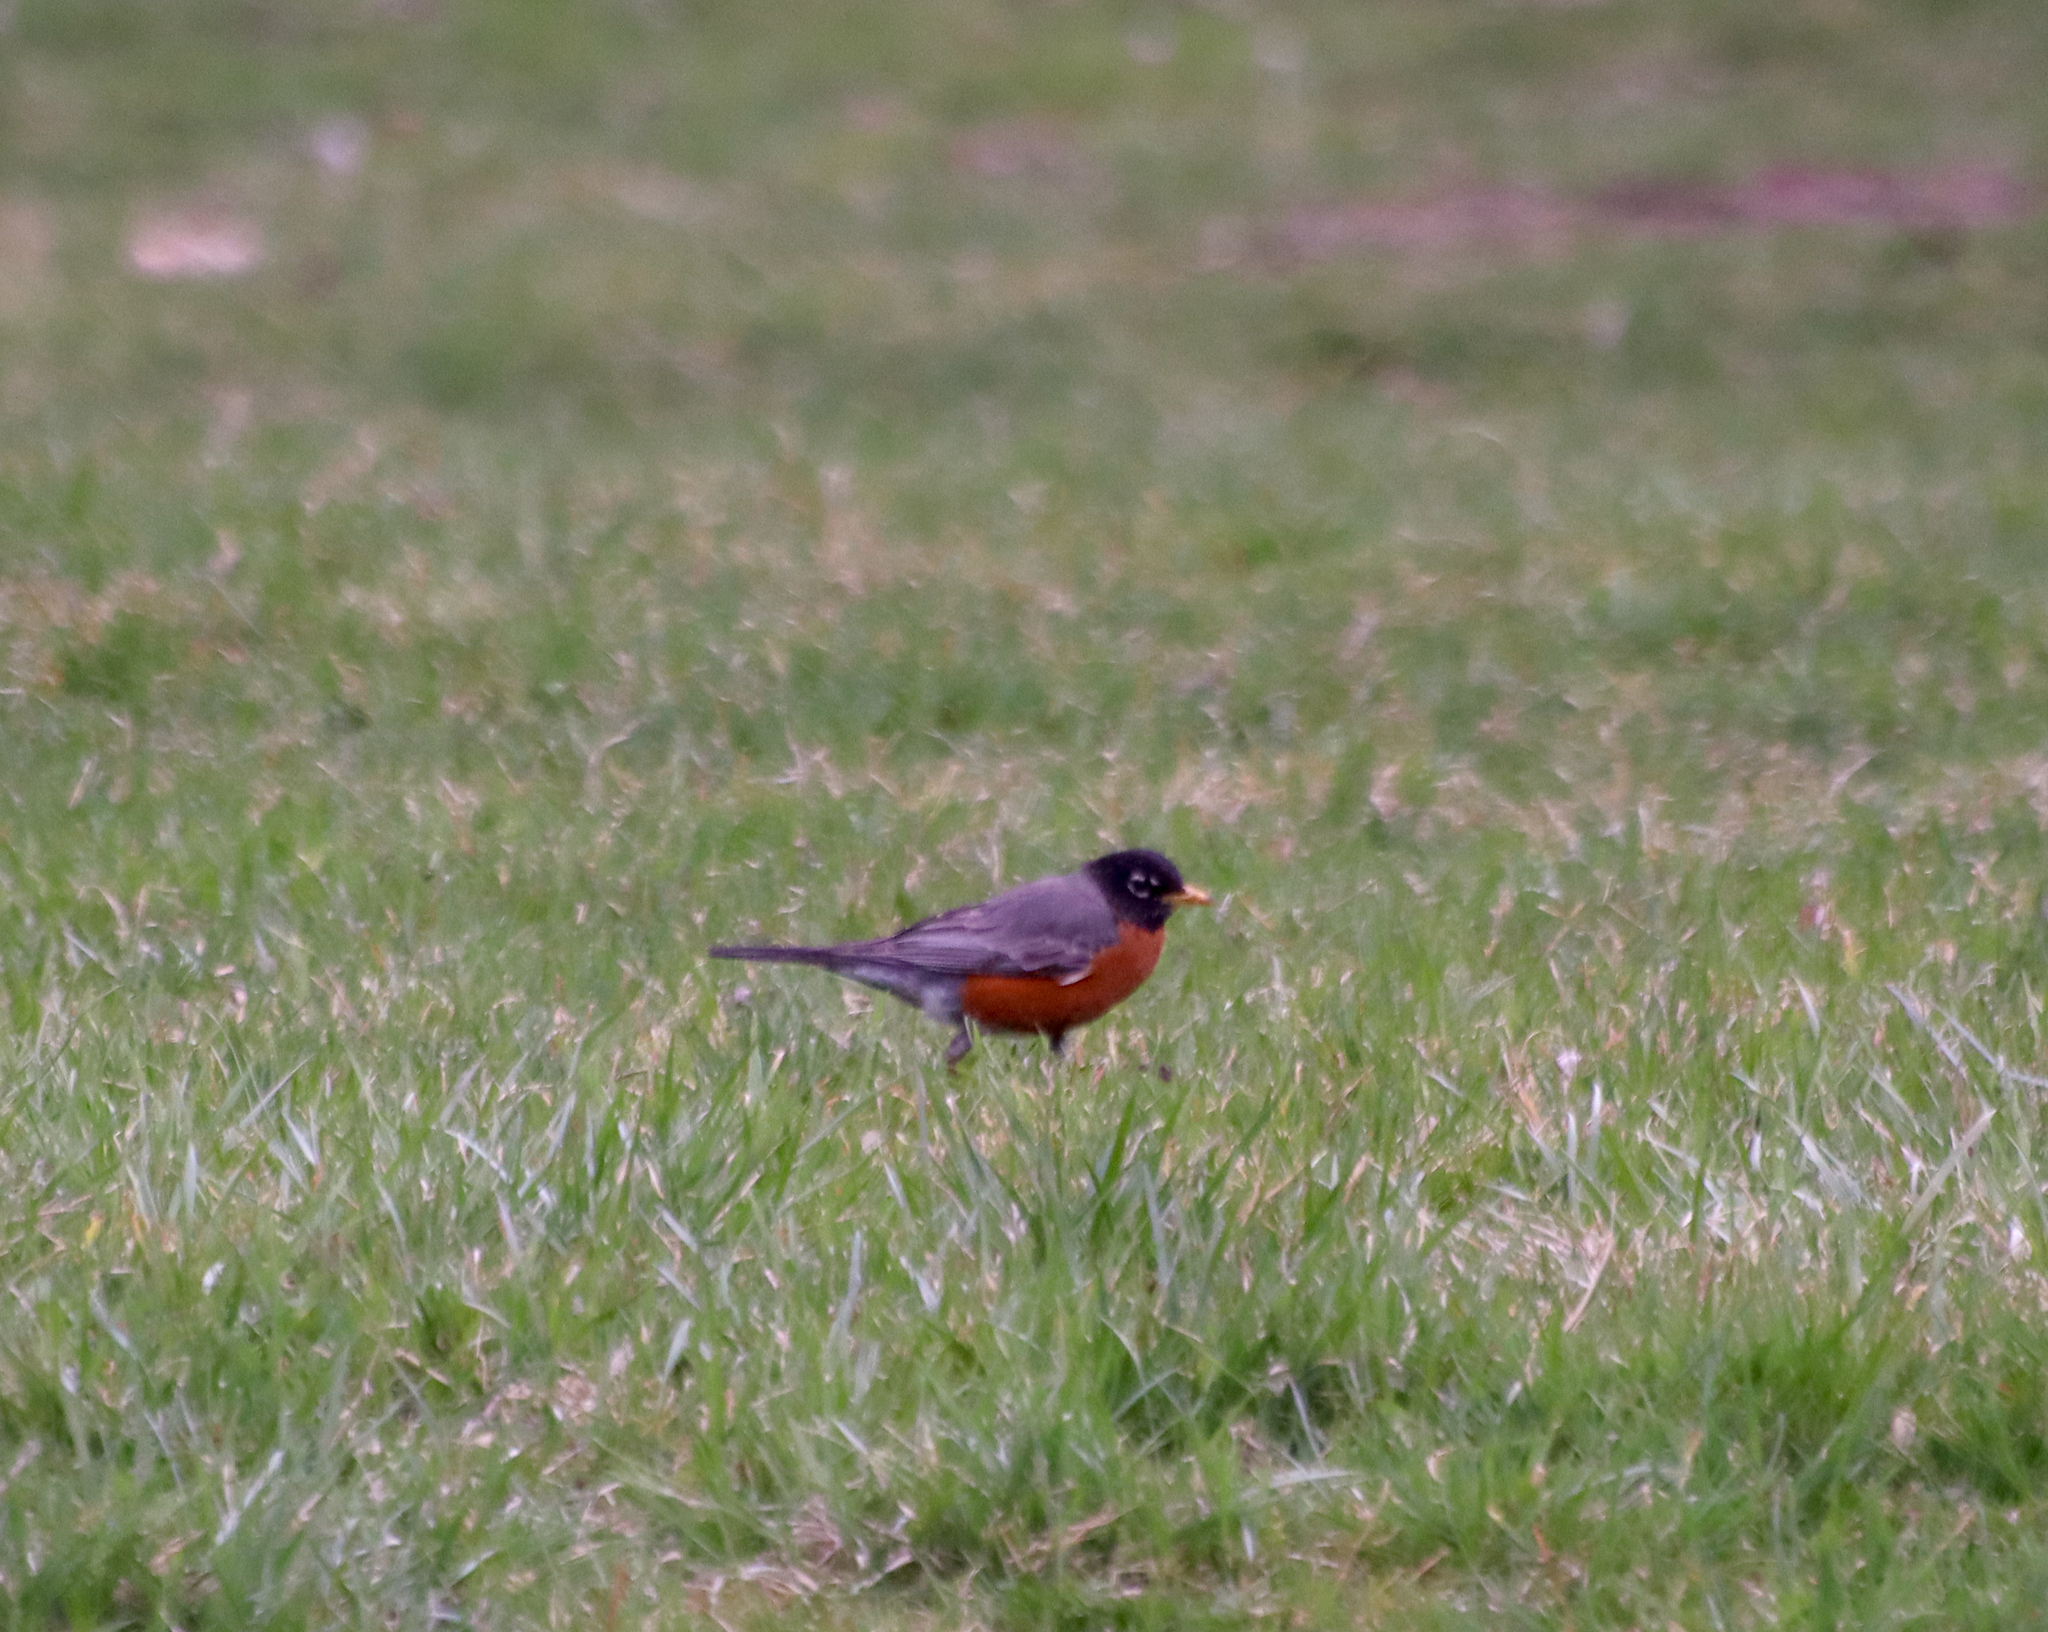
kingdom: Animalia
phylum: Chordata
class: Aves
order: Passeriformes
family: Turdidae
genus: Turdus
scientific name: Turdus migratorius
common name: American robin
